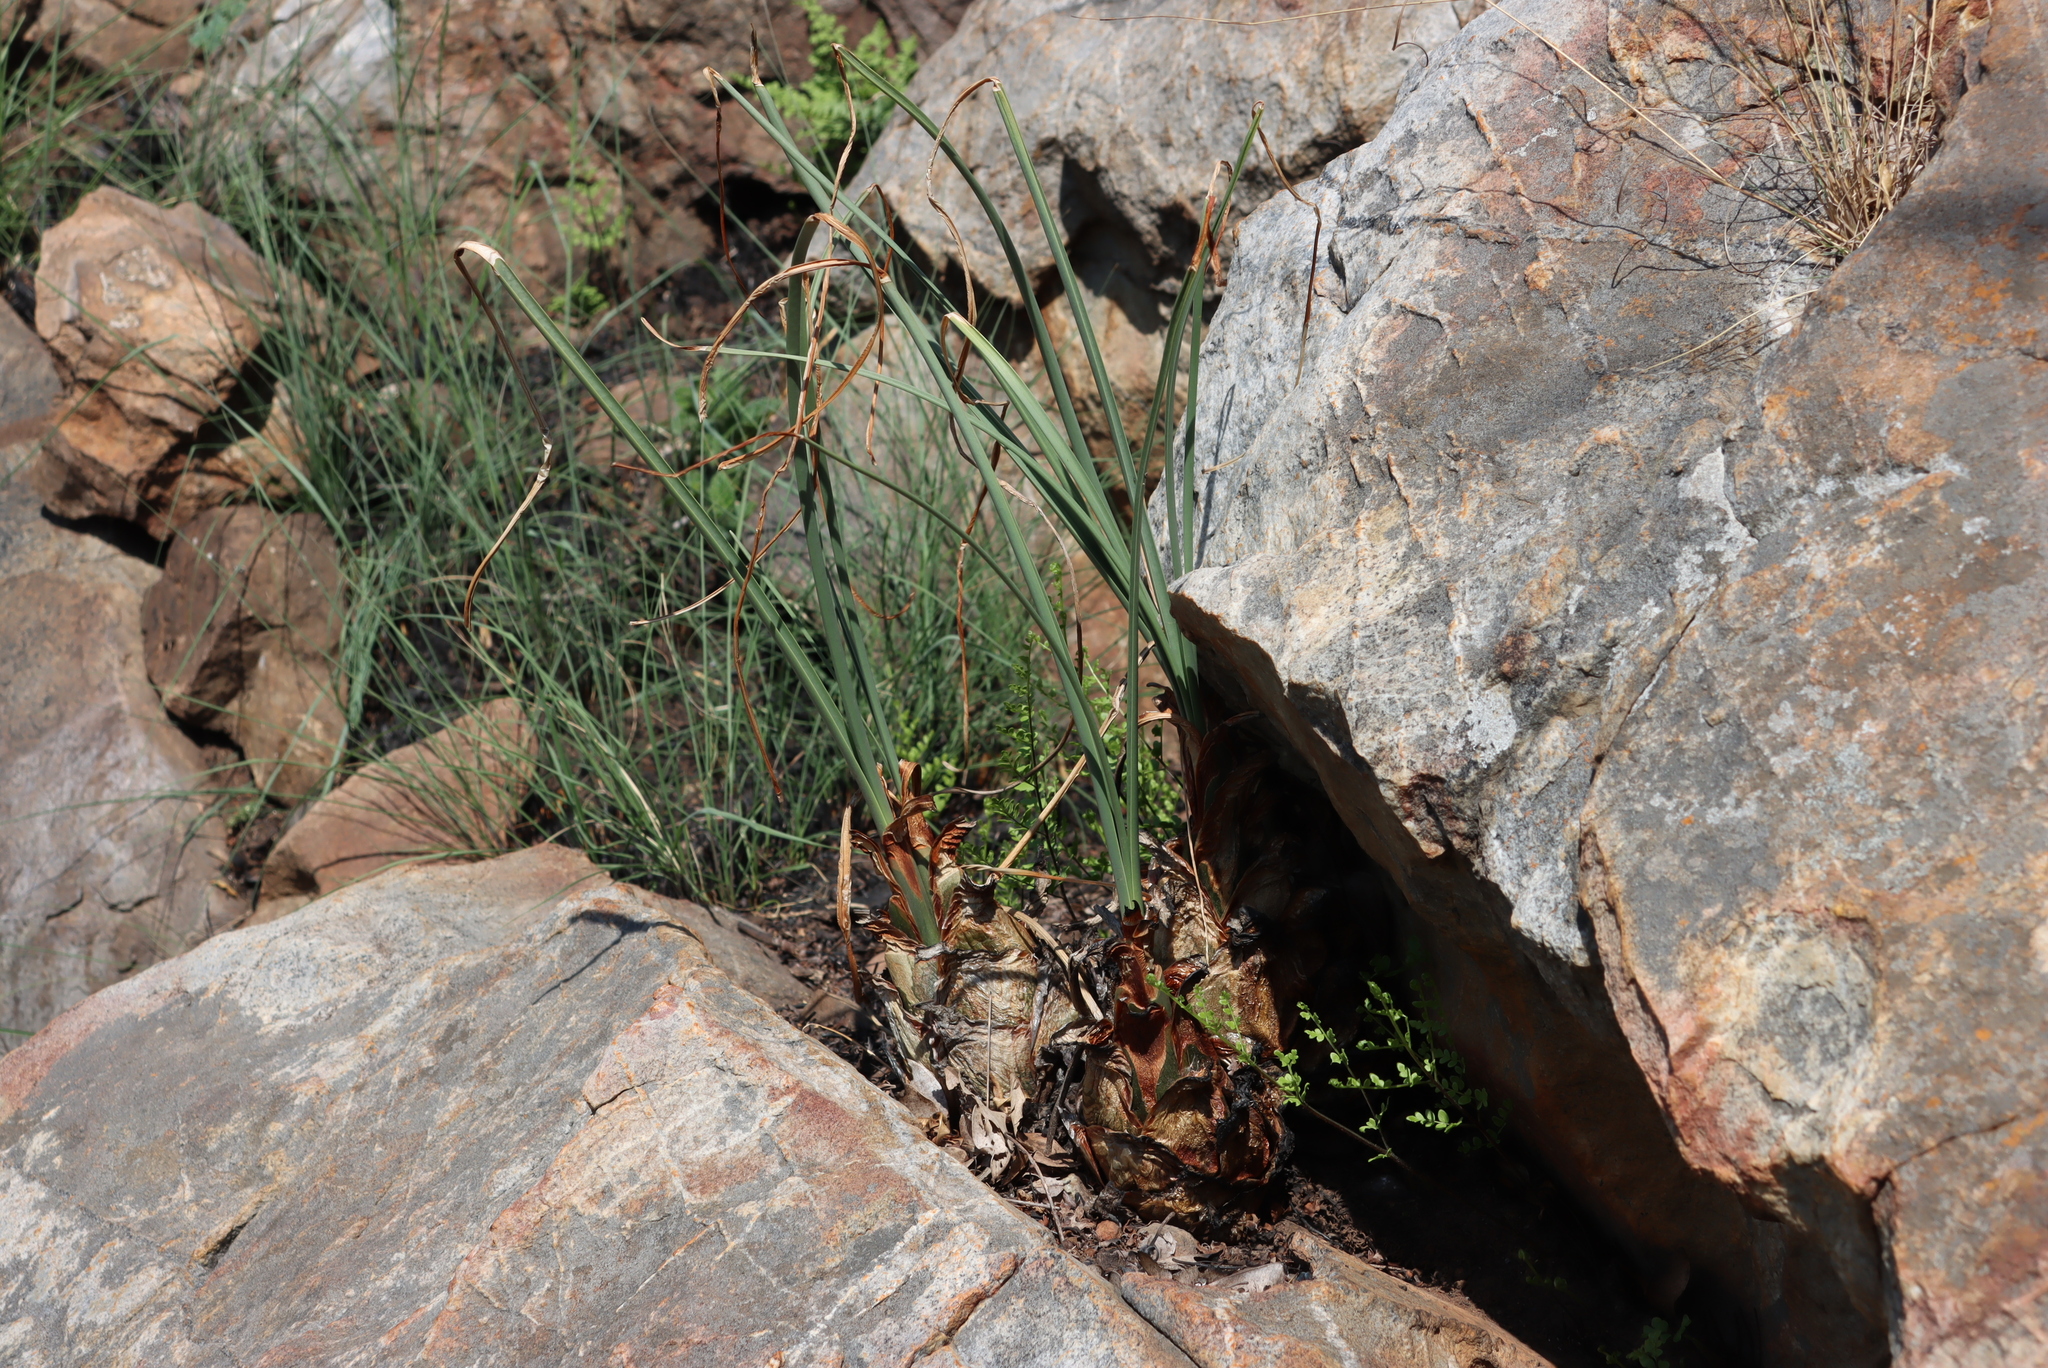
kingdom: Plantae
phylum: Tracheophyta
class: Liliopsida
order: Asparagales
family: Asparagaceae
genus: Drimia
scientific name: Drimia delagoensis
